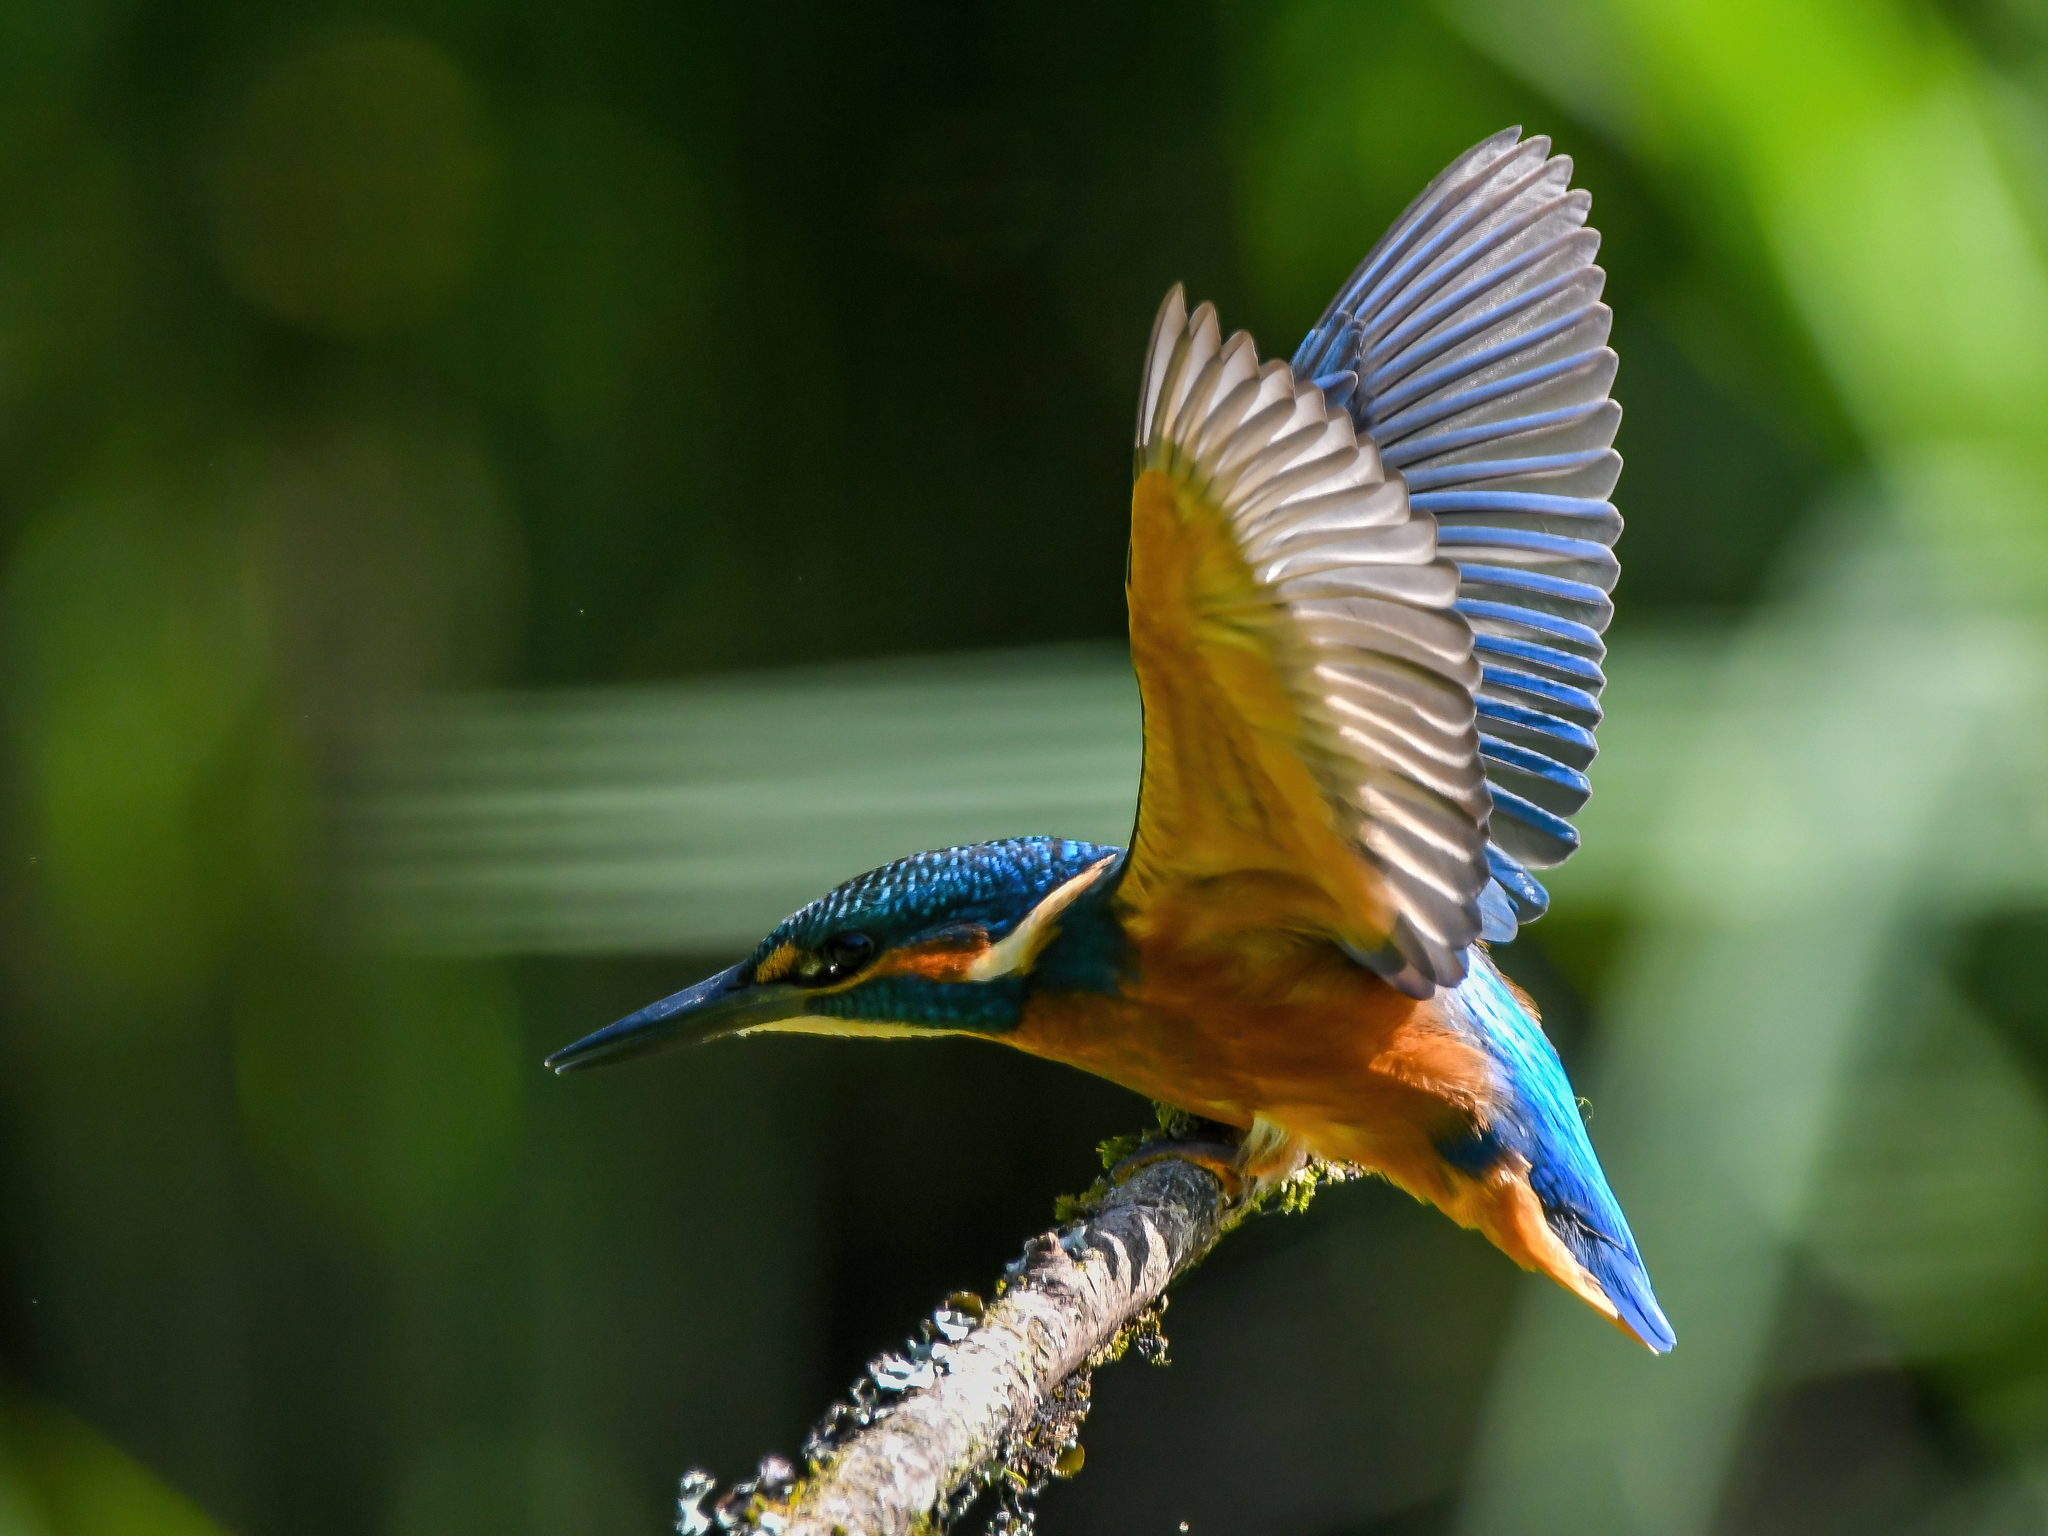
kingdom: Animalia
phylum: Chordata
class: Aves
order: Coraciiformes
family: Alcedinidae
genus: Alcedo
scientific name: Alcedo atthis
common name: Common kingfisher
